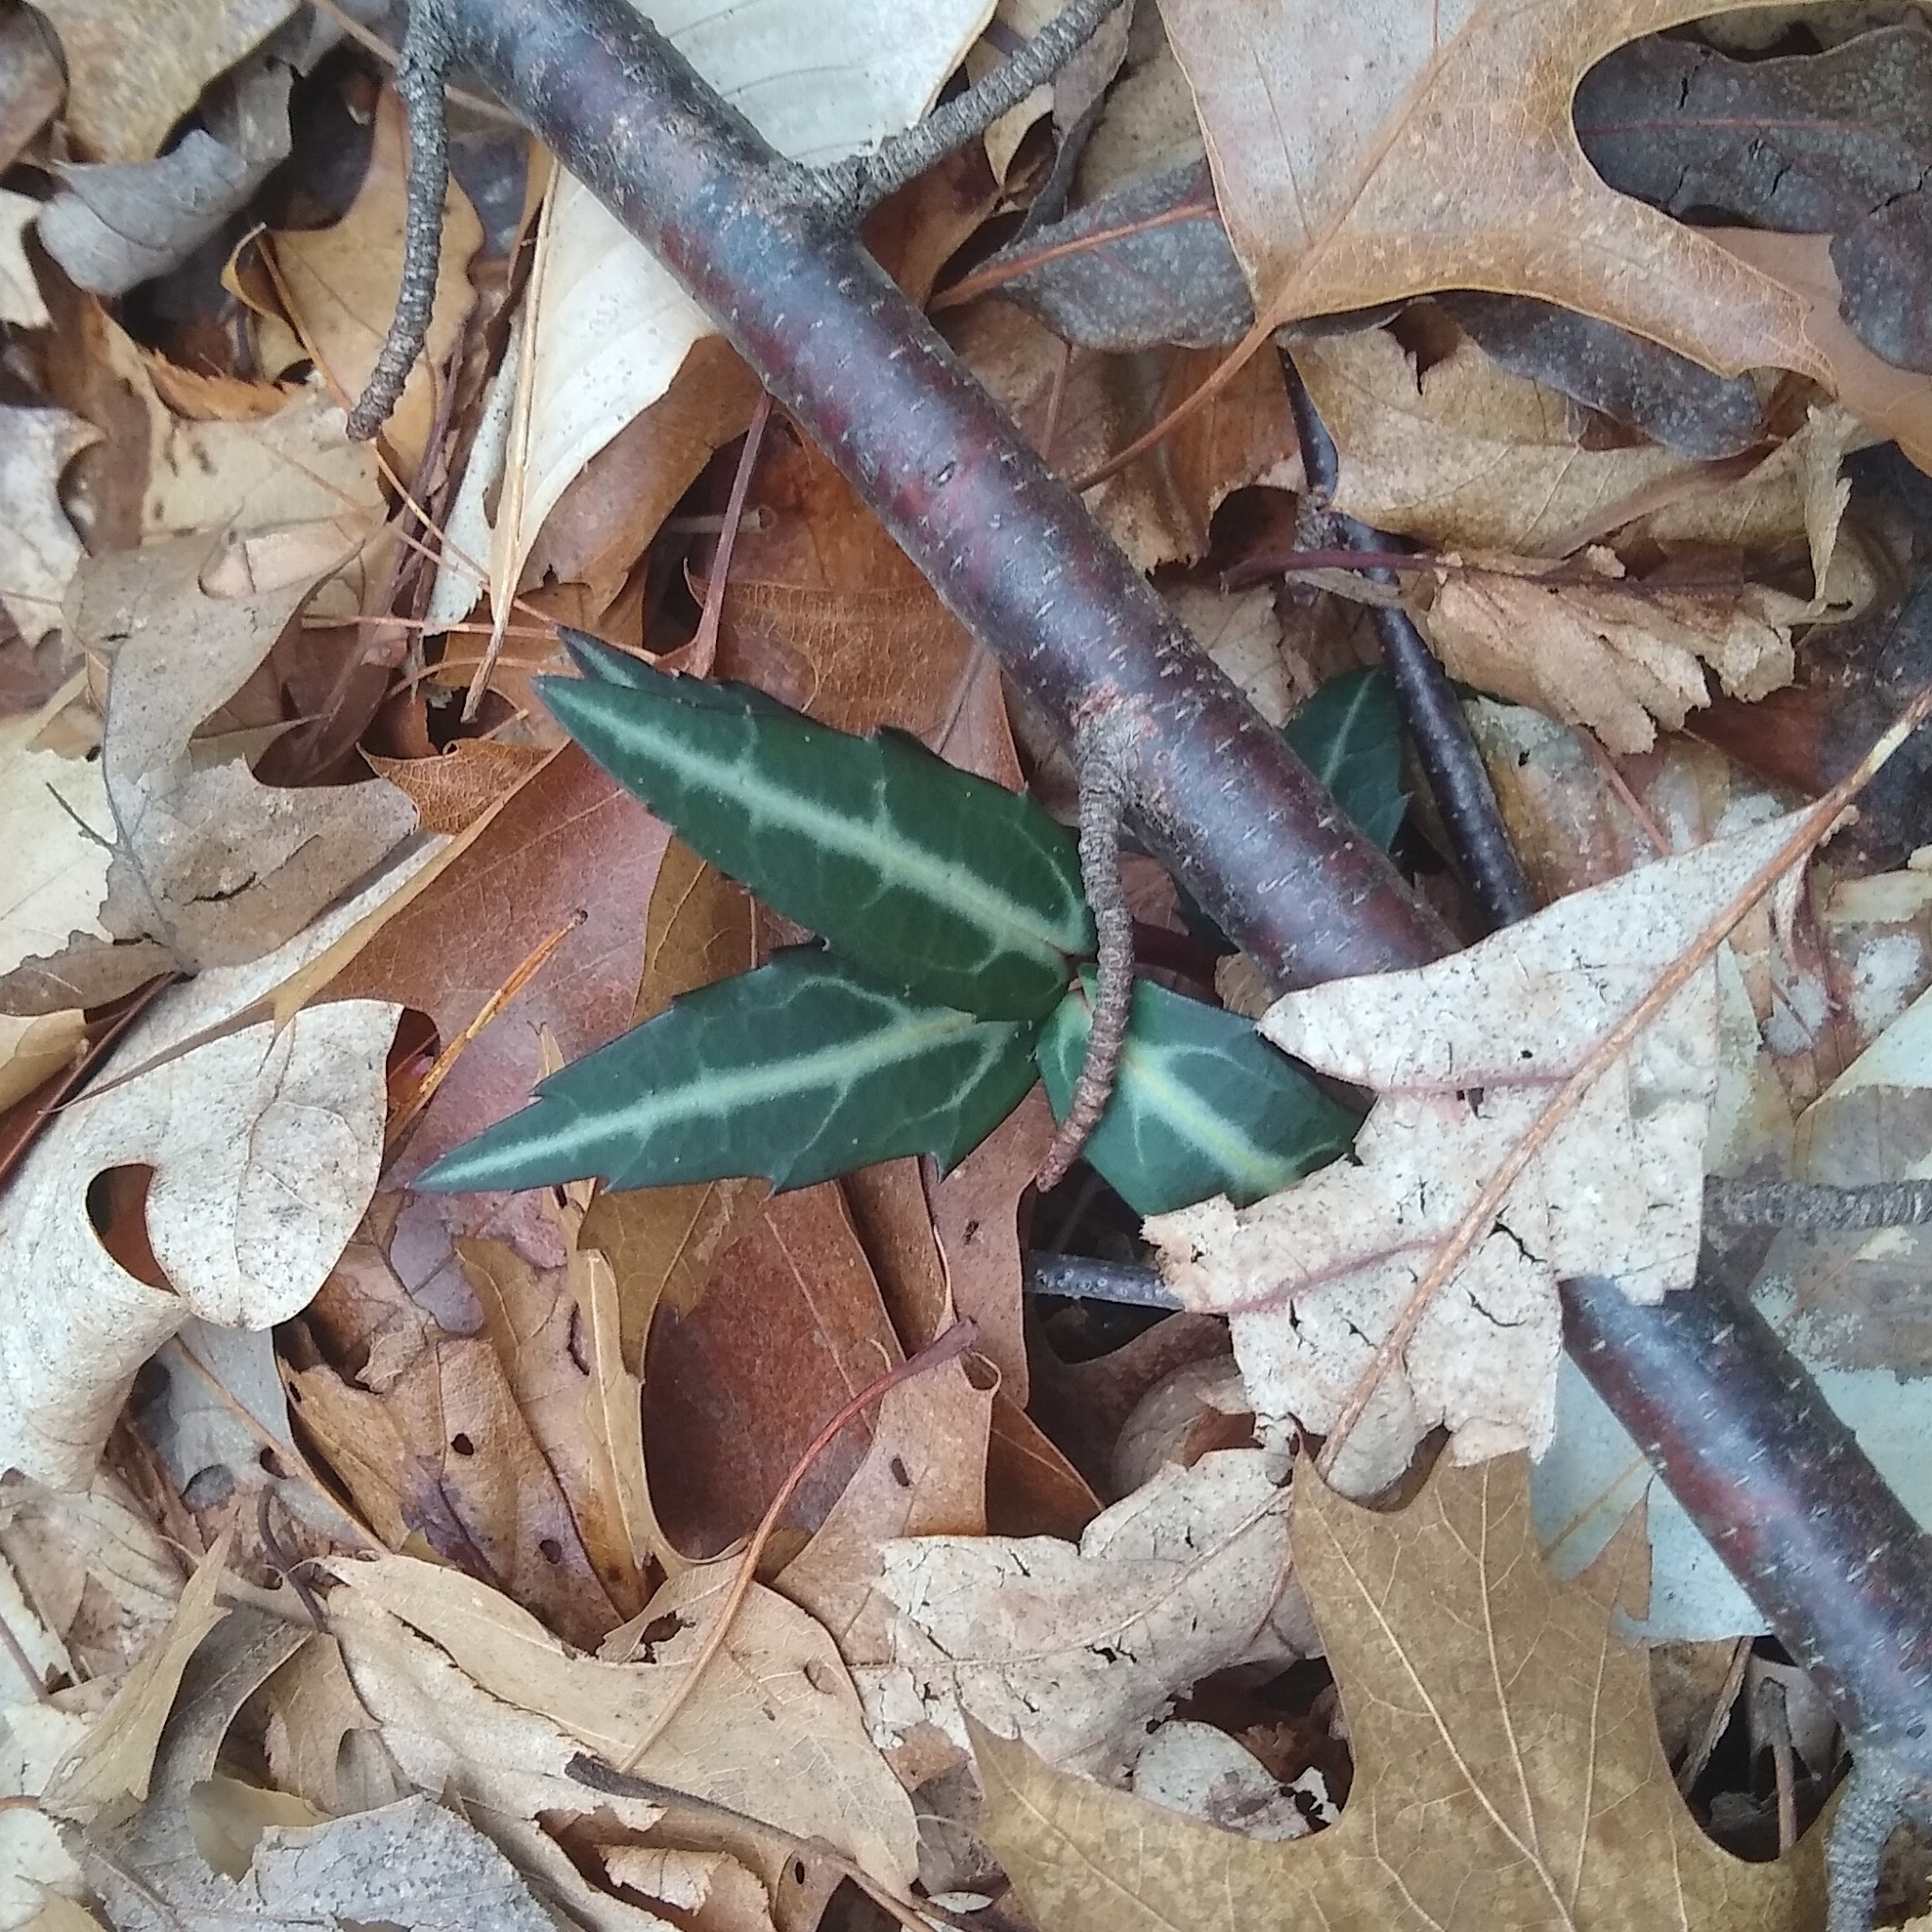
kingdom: Plantae
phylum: Tracheophyta
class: Magnoliopsida
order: Ericales
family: Ericaceae
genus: Chimaphila
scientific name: Chimaphila maculata
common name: Spotted pipsissewa
